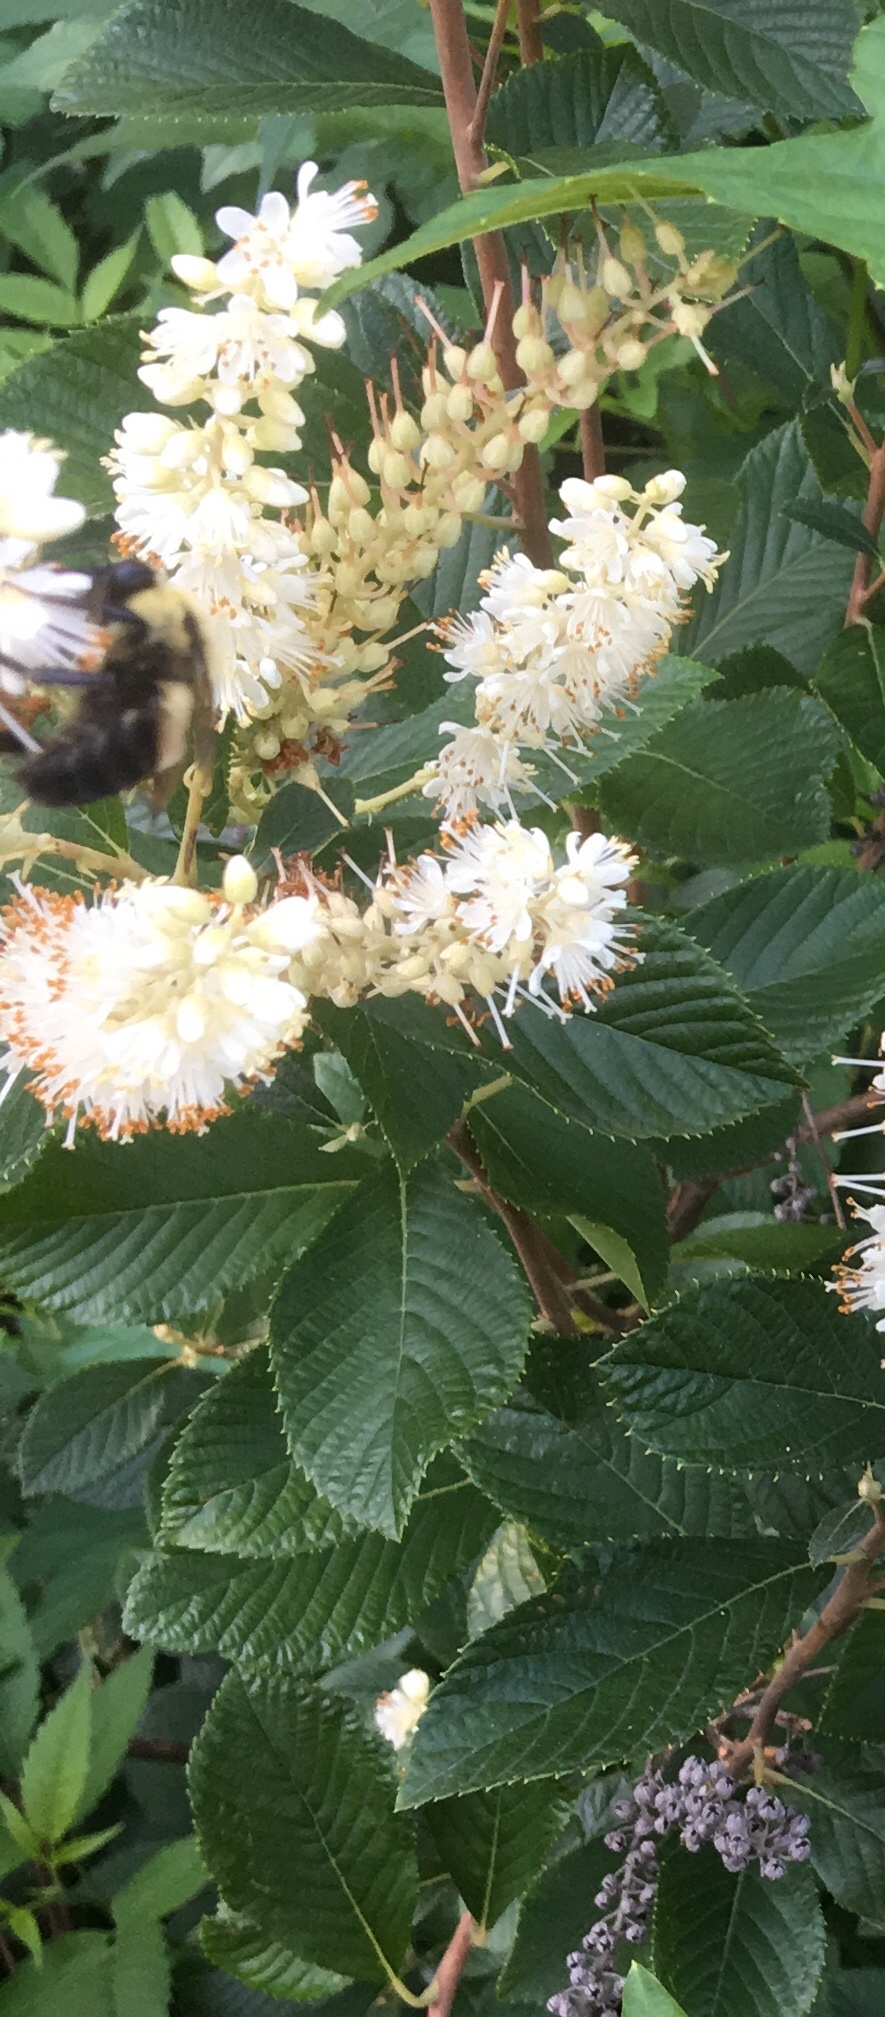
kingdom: Plantae
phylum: Tracheophyta
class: Magnoliopsida
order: Ericales
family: Clethraceae
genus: Clethra
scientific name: Clethra alnifolia
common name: Sweet pepperbush
